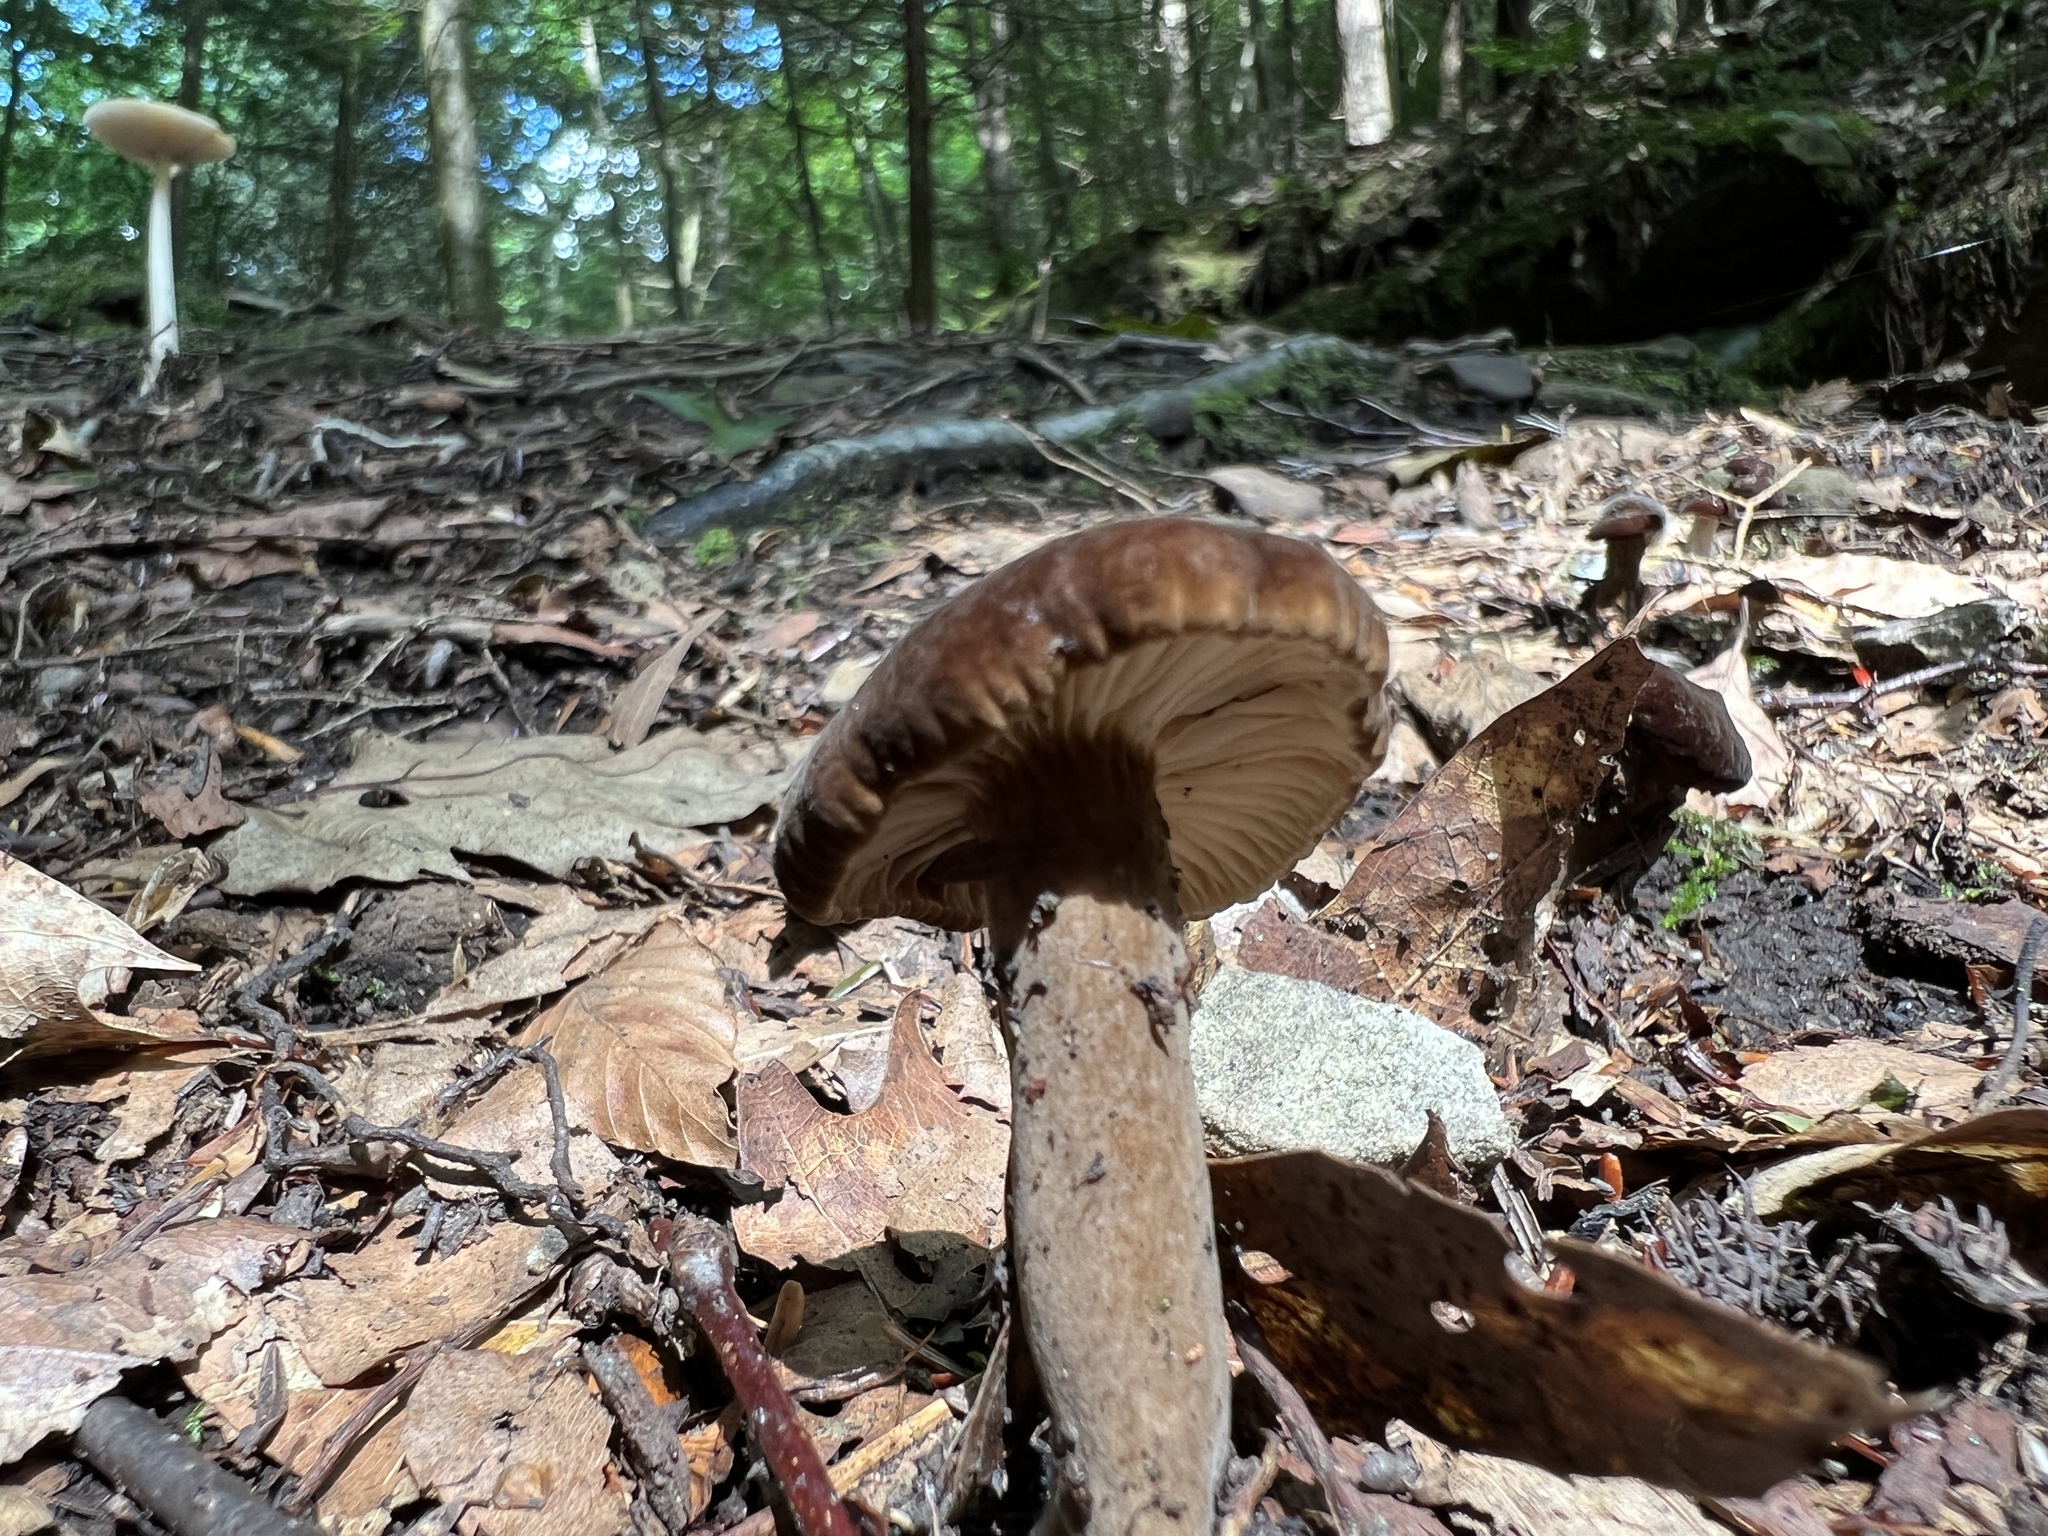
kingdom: Fungi
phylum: Basidiomycota
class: Agaricomycetes
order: Russulales
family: Russulaceae
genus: Lactarius
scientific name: Lactarius lignyotus
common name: Velvet milkcap
